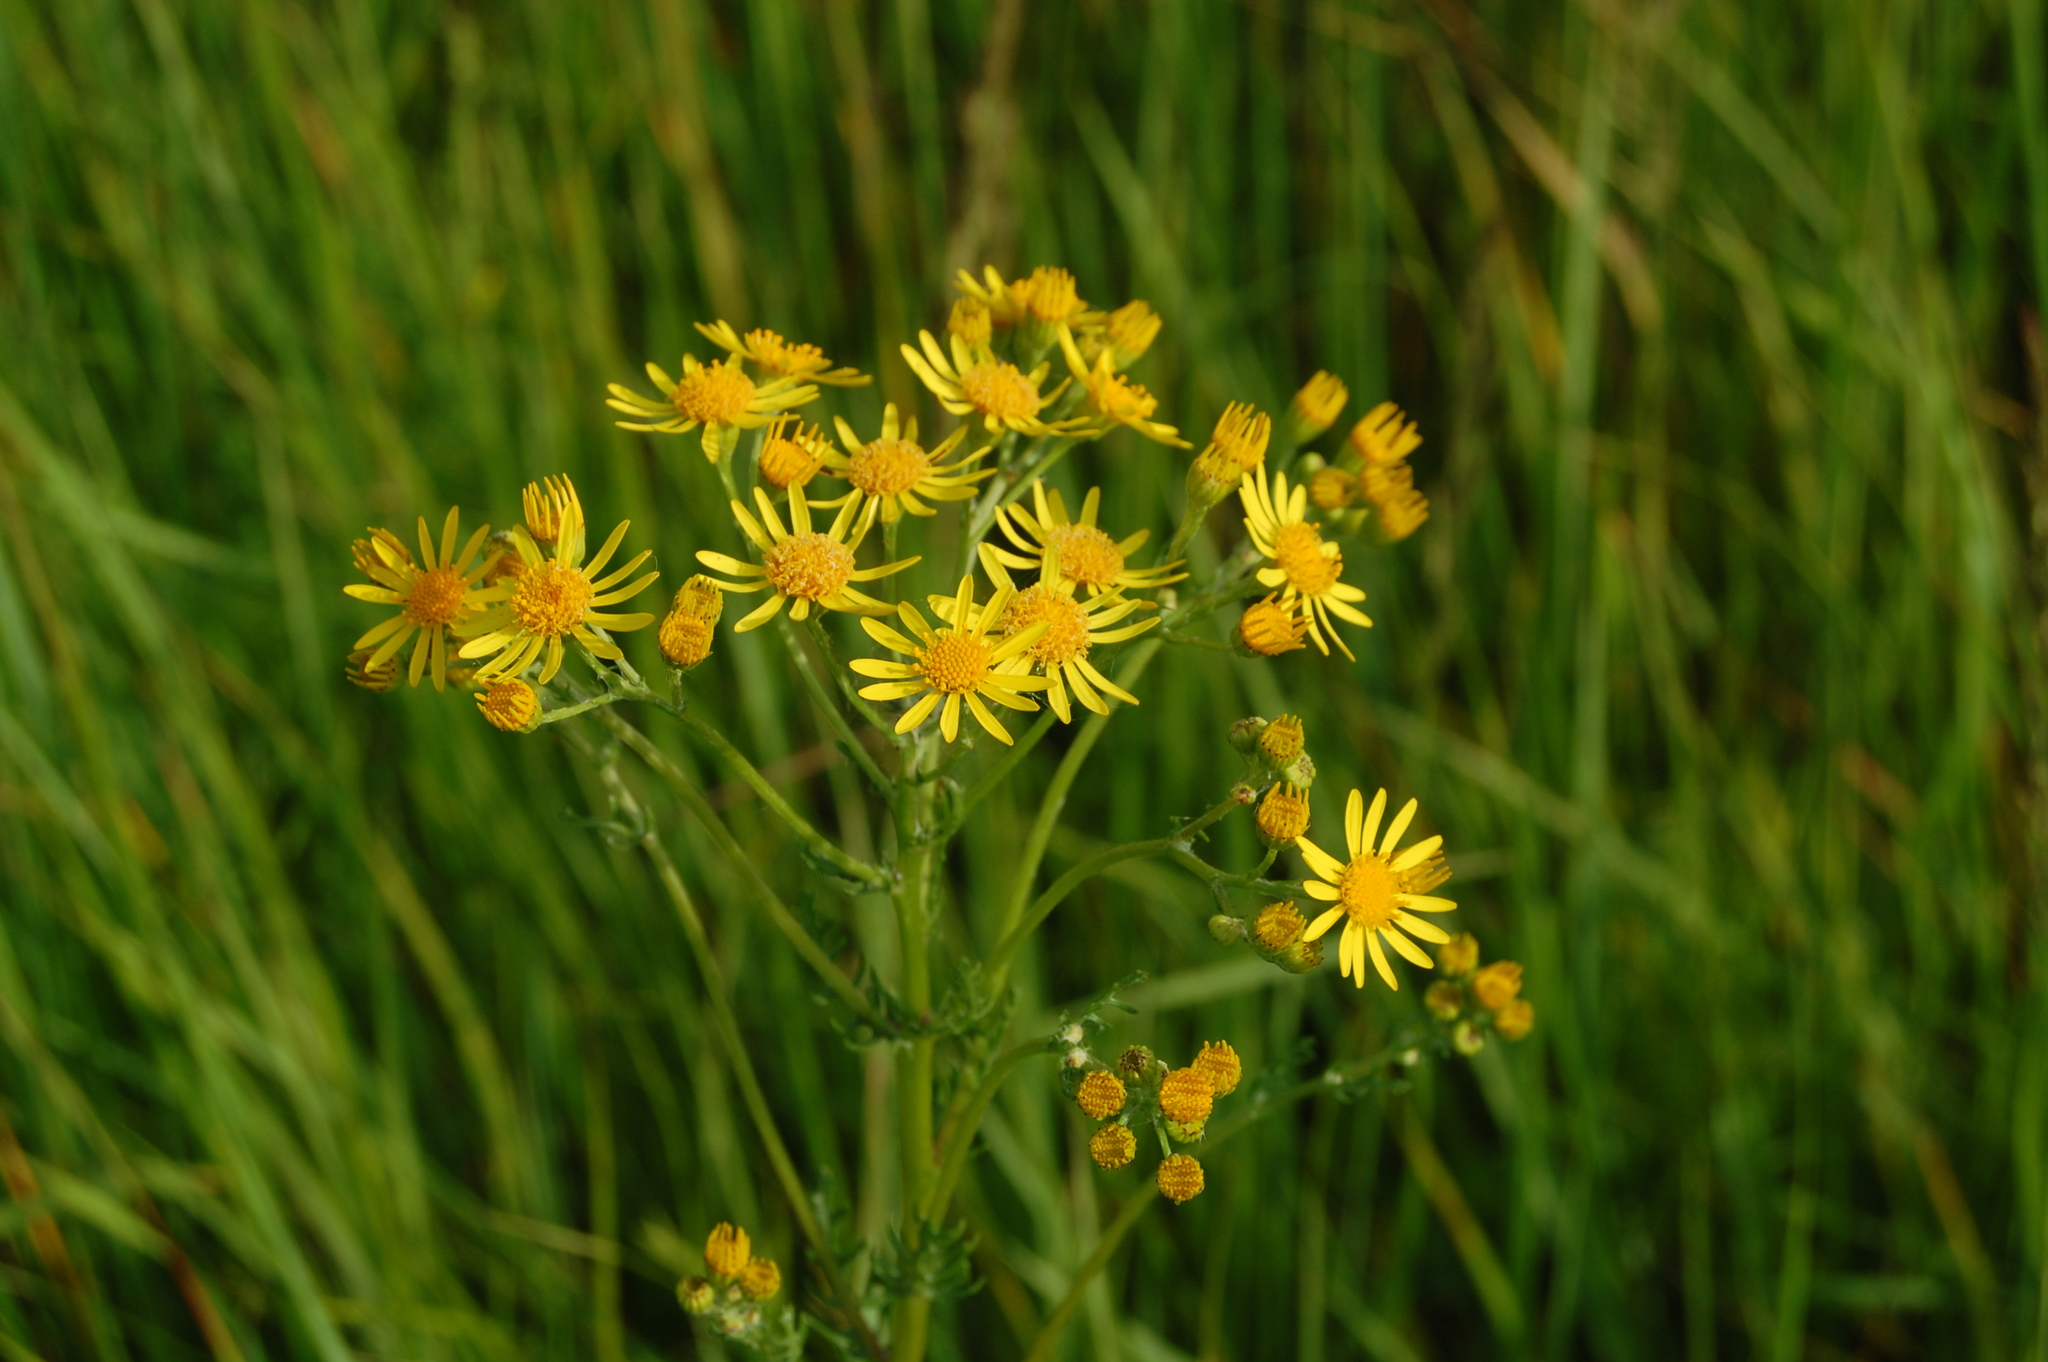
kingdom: Plantae
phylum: Tracheophyta
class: Magnoliopsida
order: Asterales
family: Asteraceae
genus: Jacobaea
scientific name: Jacobaea vulgaris
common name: Stinking willie
